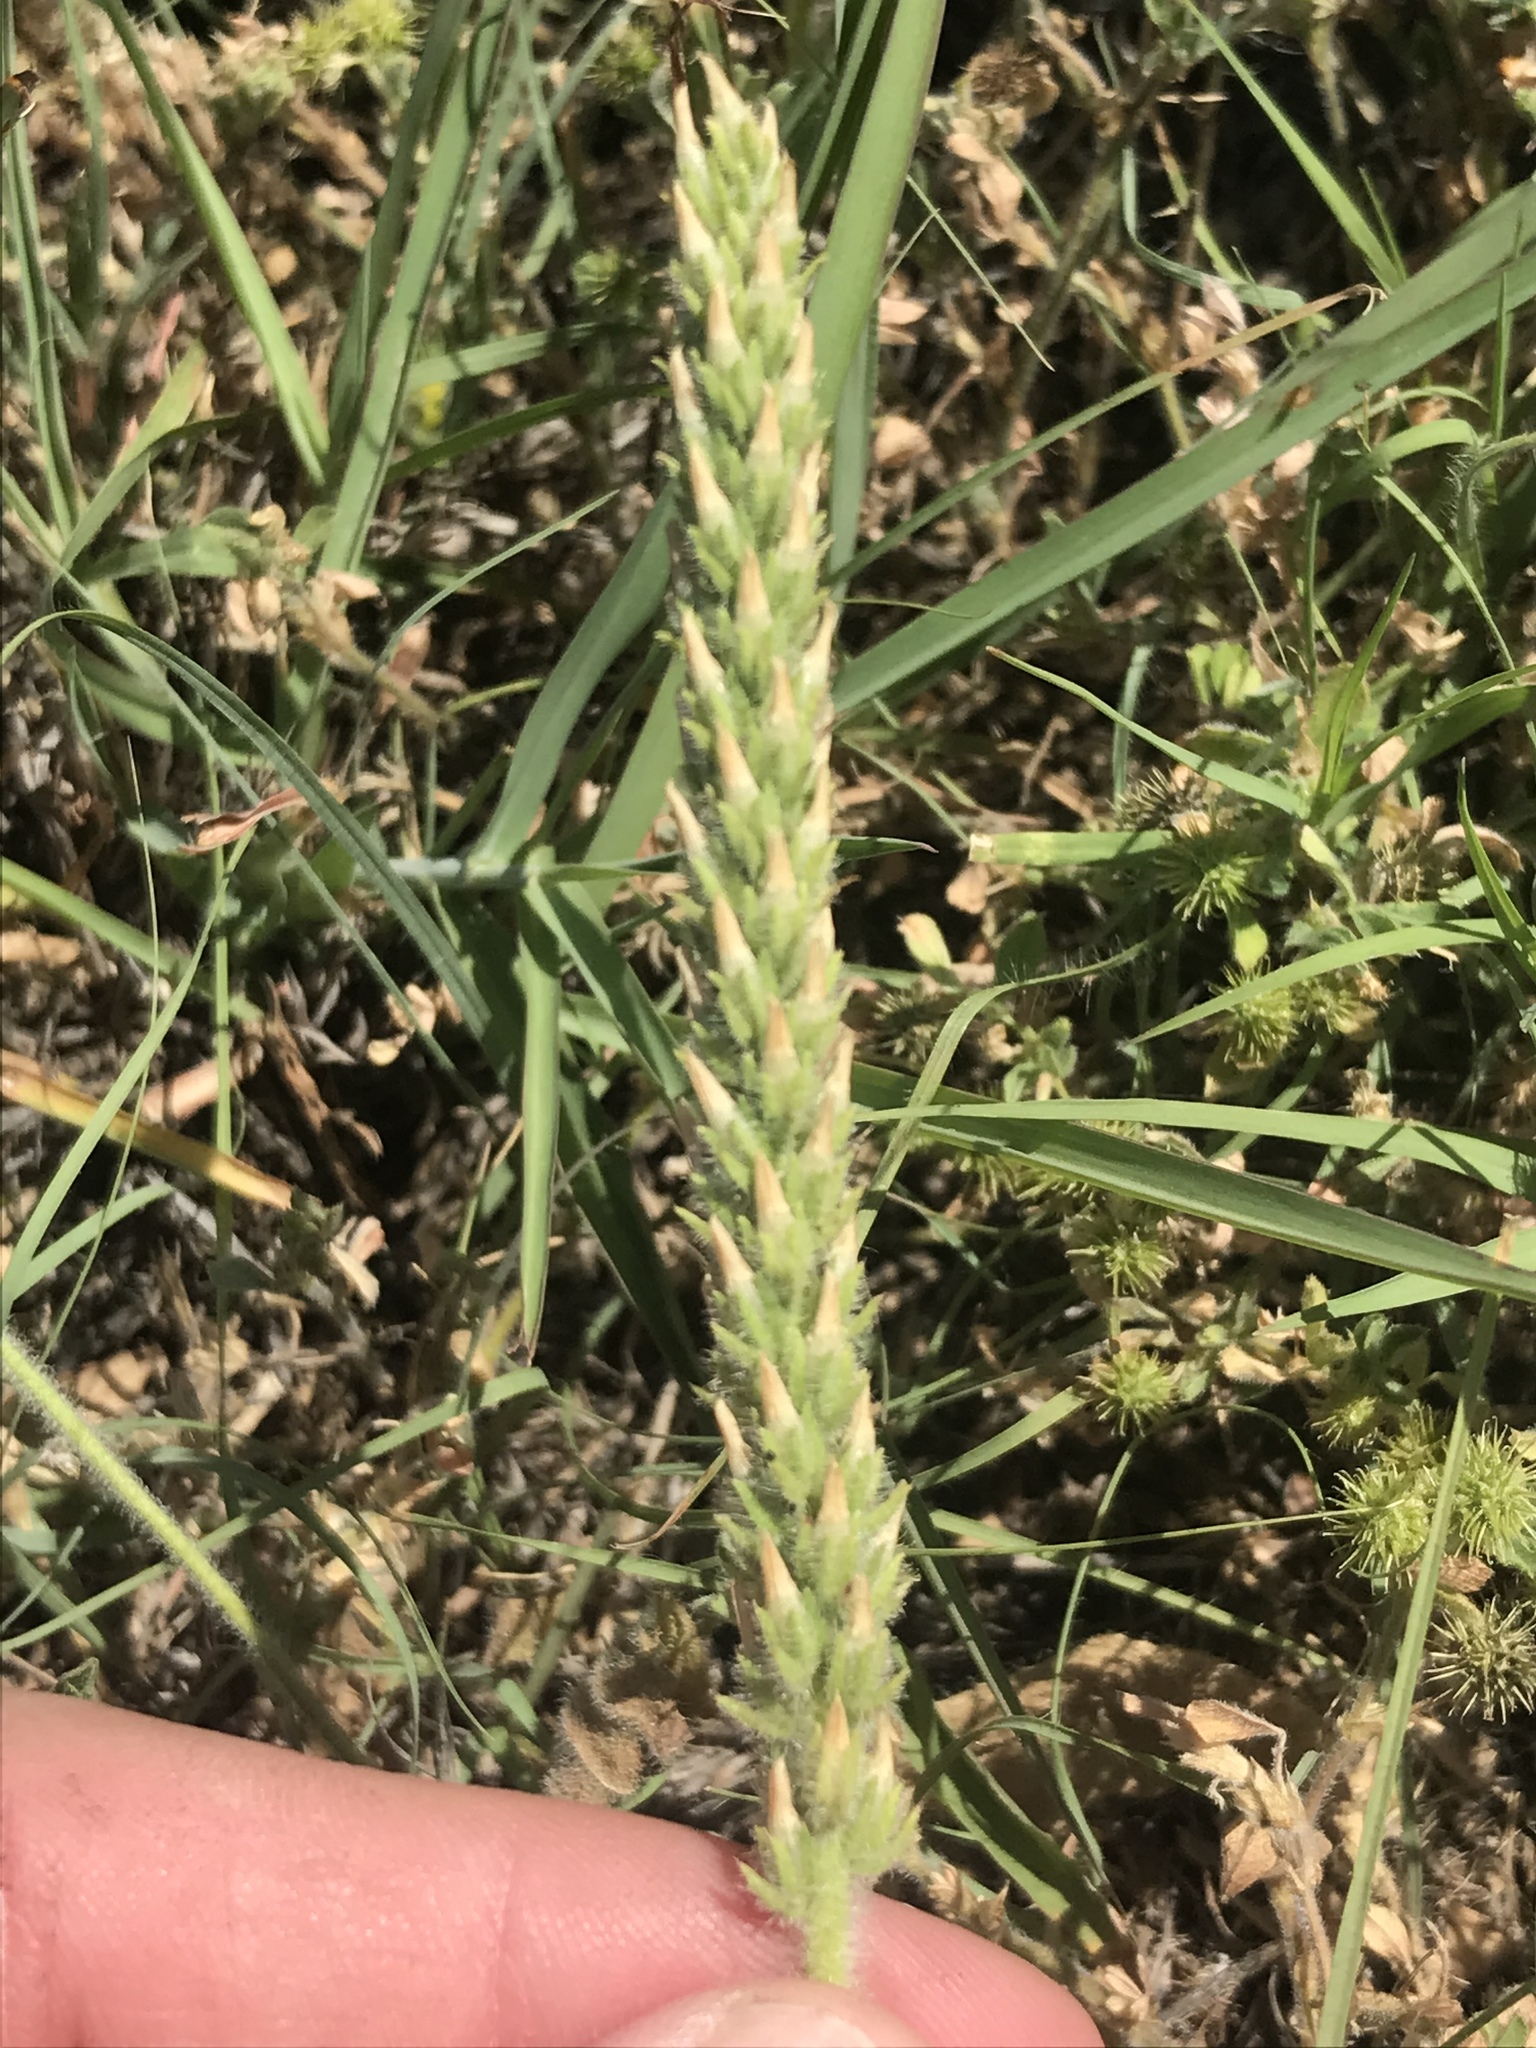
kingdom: Plantae
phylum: Tracheophyta
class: Magnoliopsida
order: Lamiales
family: Plantaginaceae
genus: Plantago
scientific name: Plantago rhodosperma
